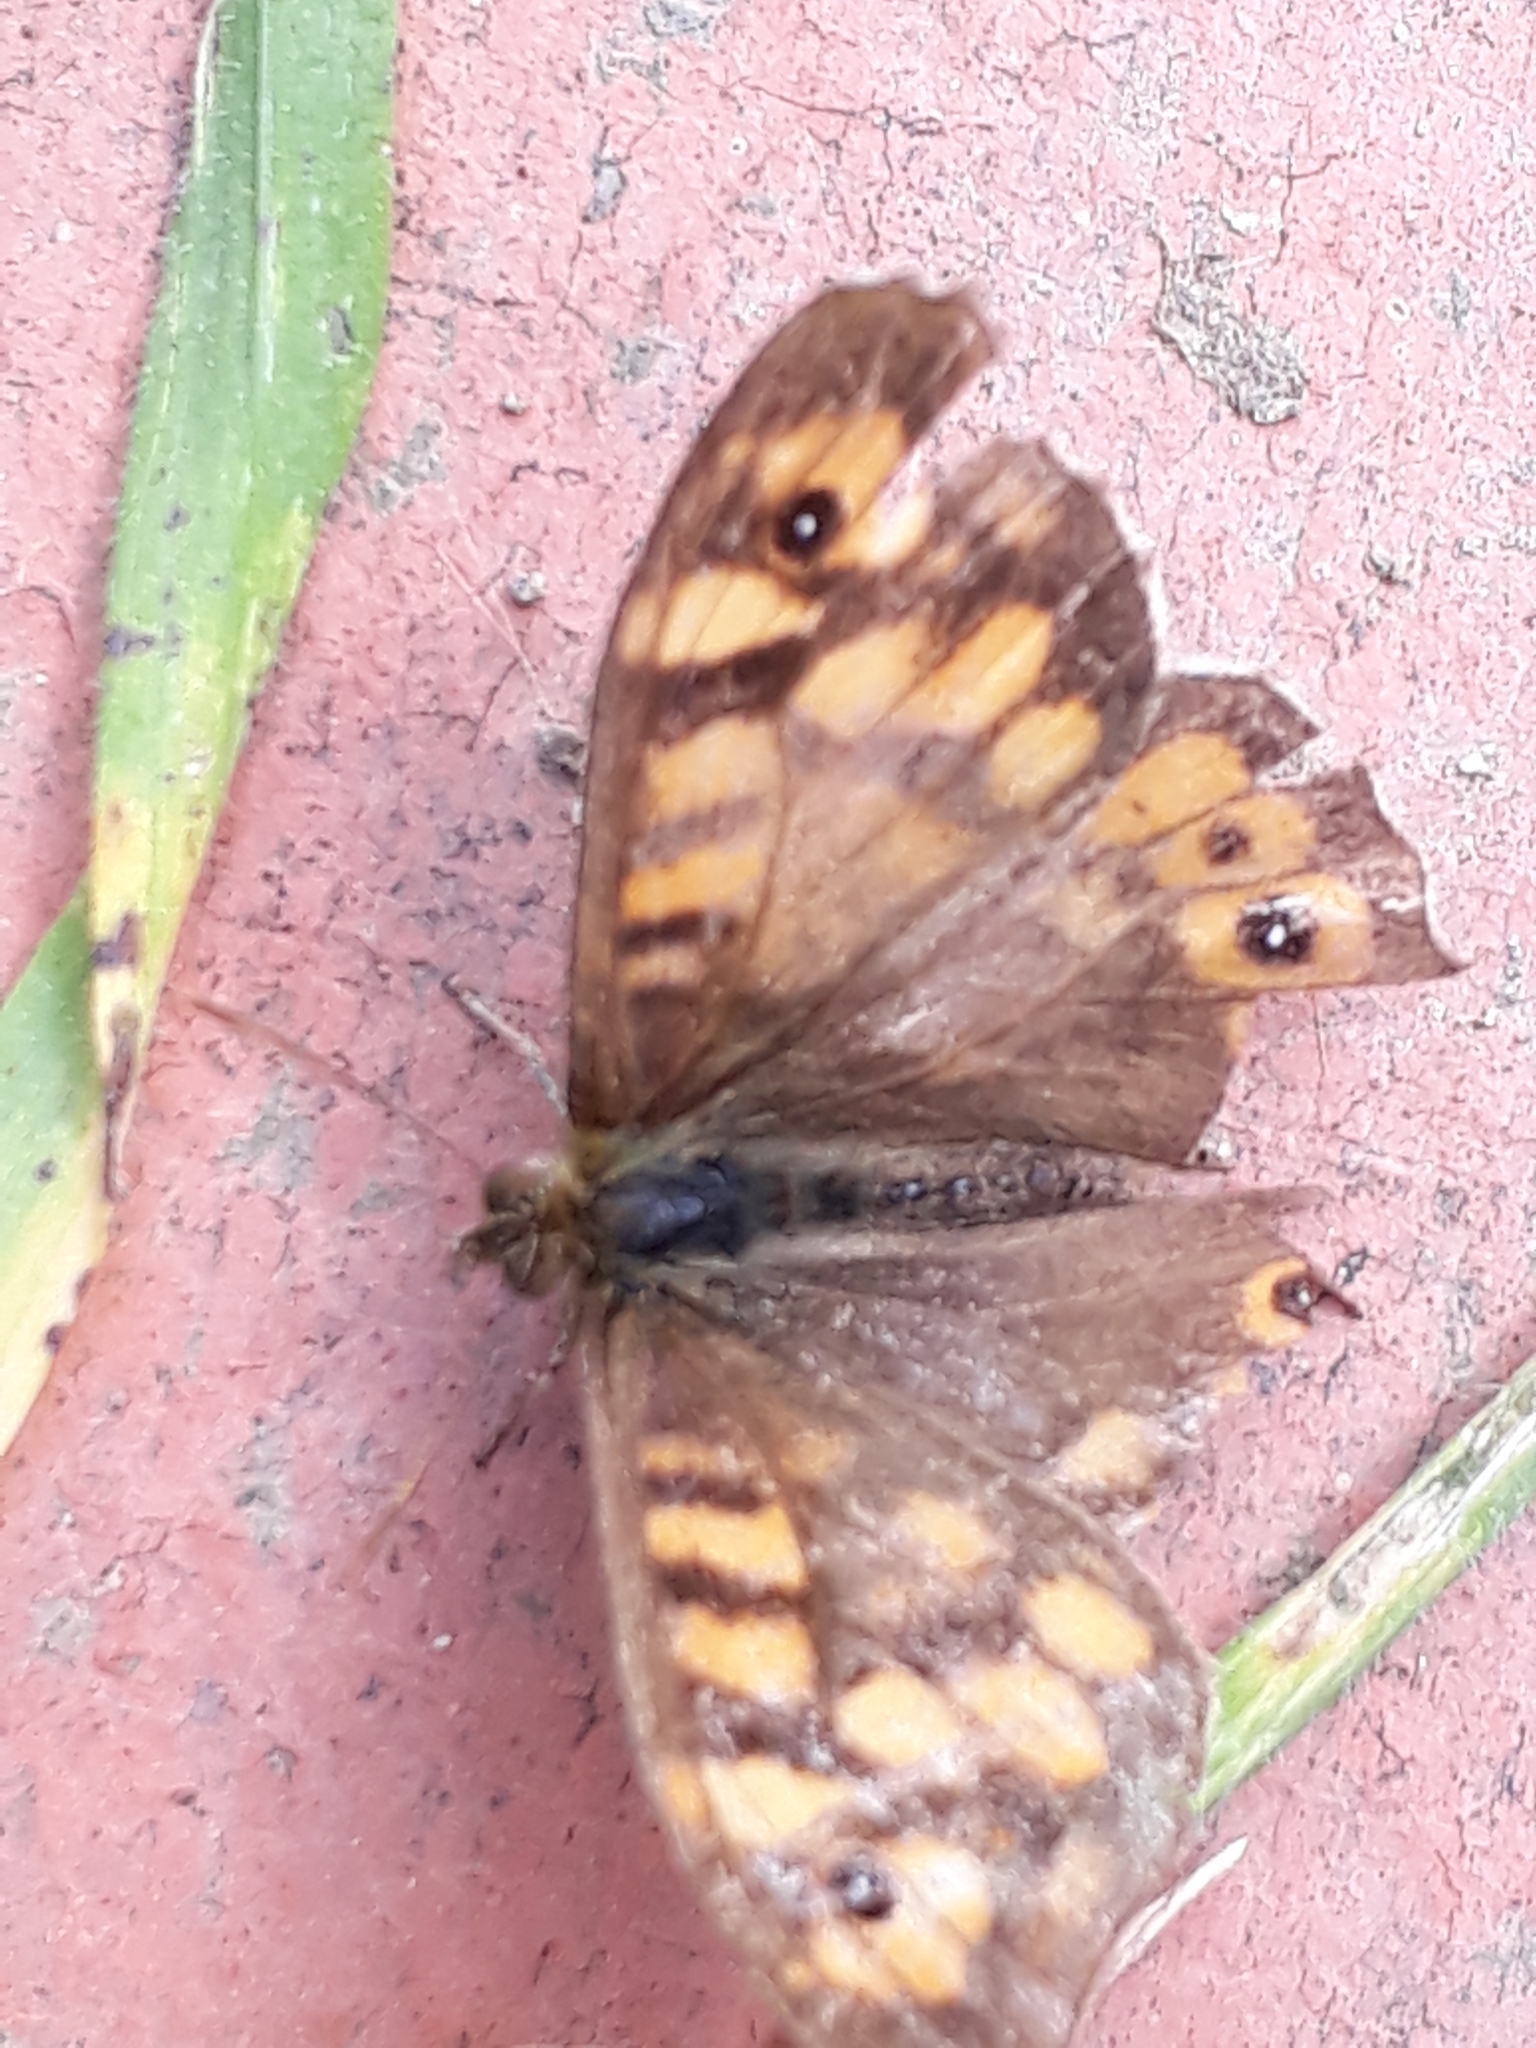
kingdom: Animalia
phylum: Arthropoda
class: Insecta
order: Lepidoptera
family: Nymphalidae
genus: Pararge
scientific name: Pararge aegeria
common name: Speckled wood
